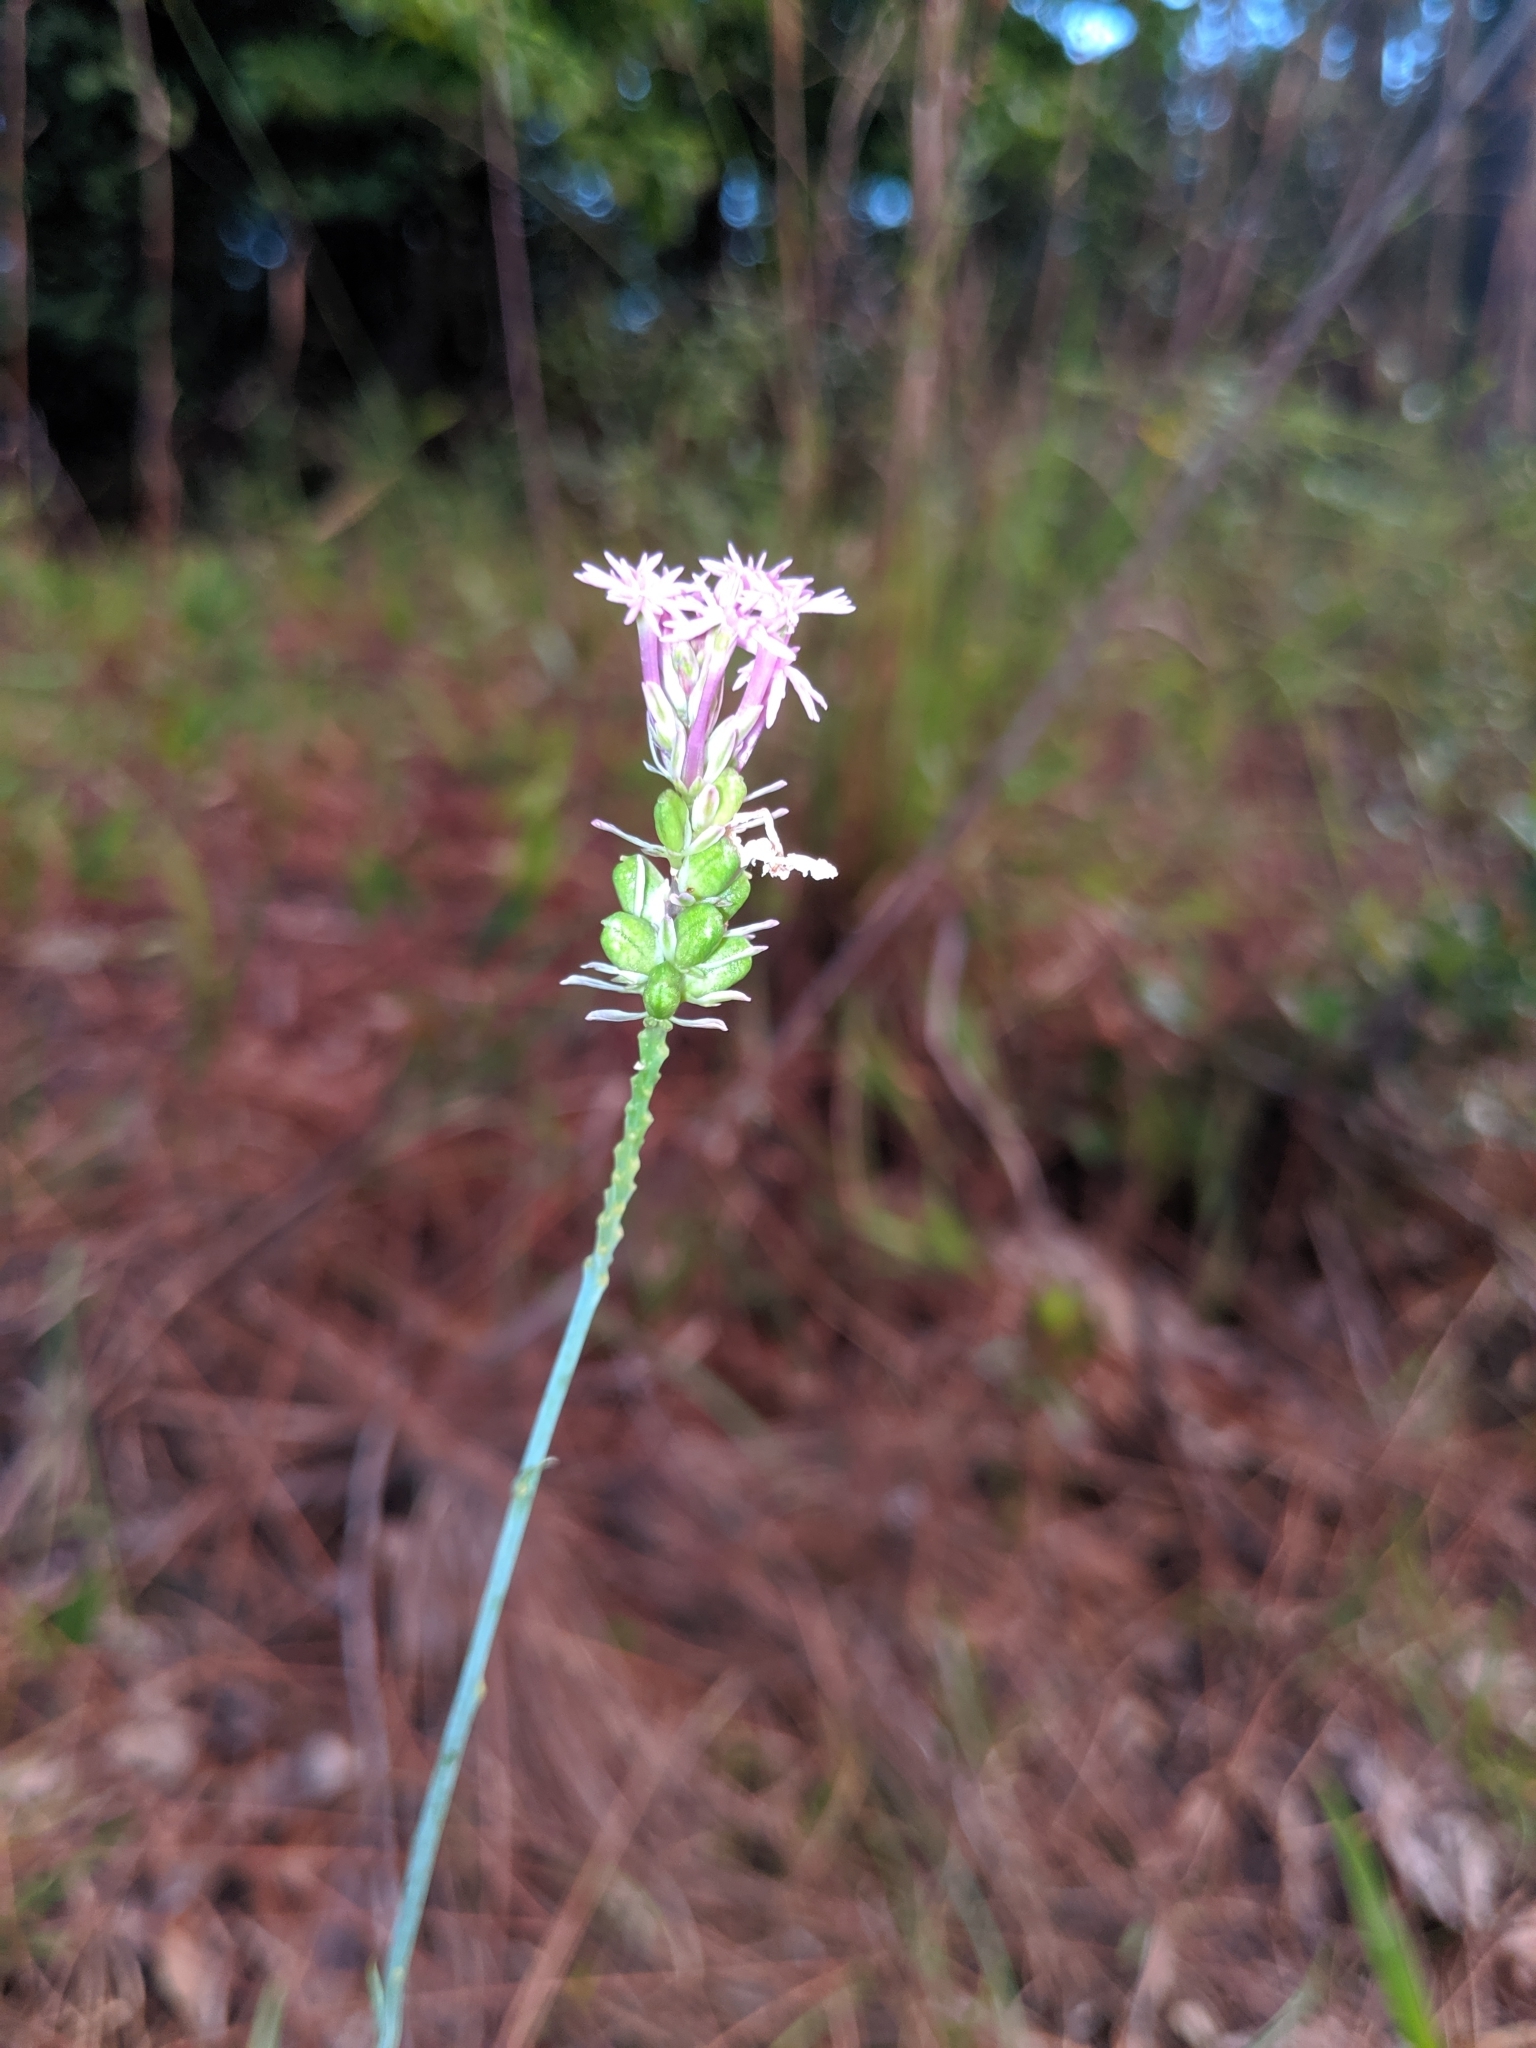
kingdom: Plantae
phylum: Tracheophyta
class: Magnoliopsida
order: Fabales
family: Polygalaceae
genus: Polygala
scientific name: Polygala incarnata
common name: Pink milkwort
